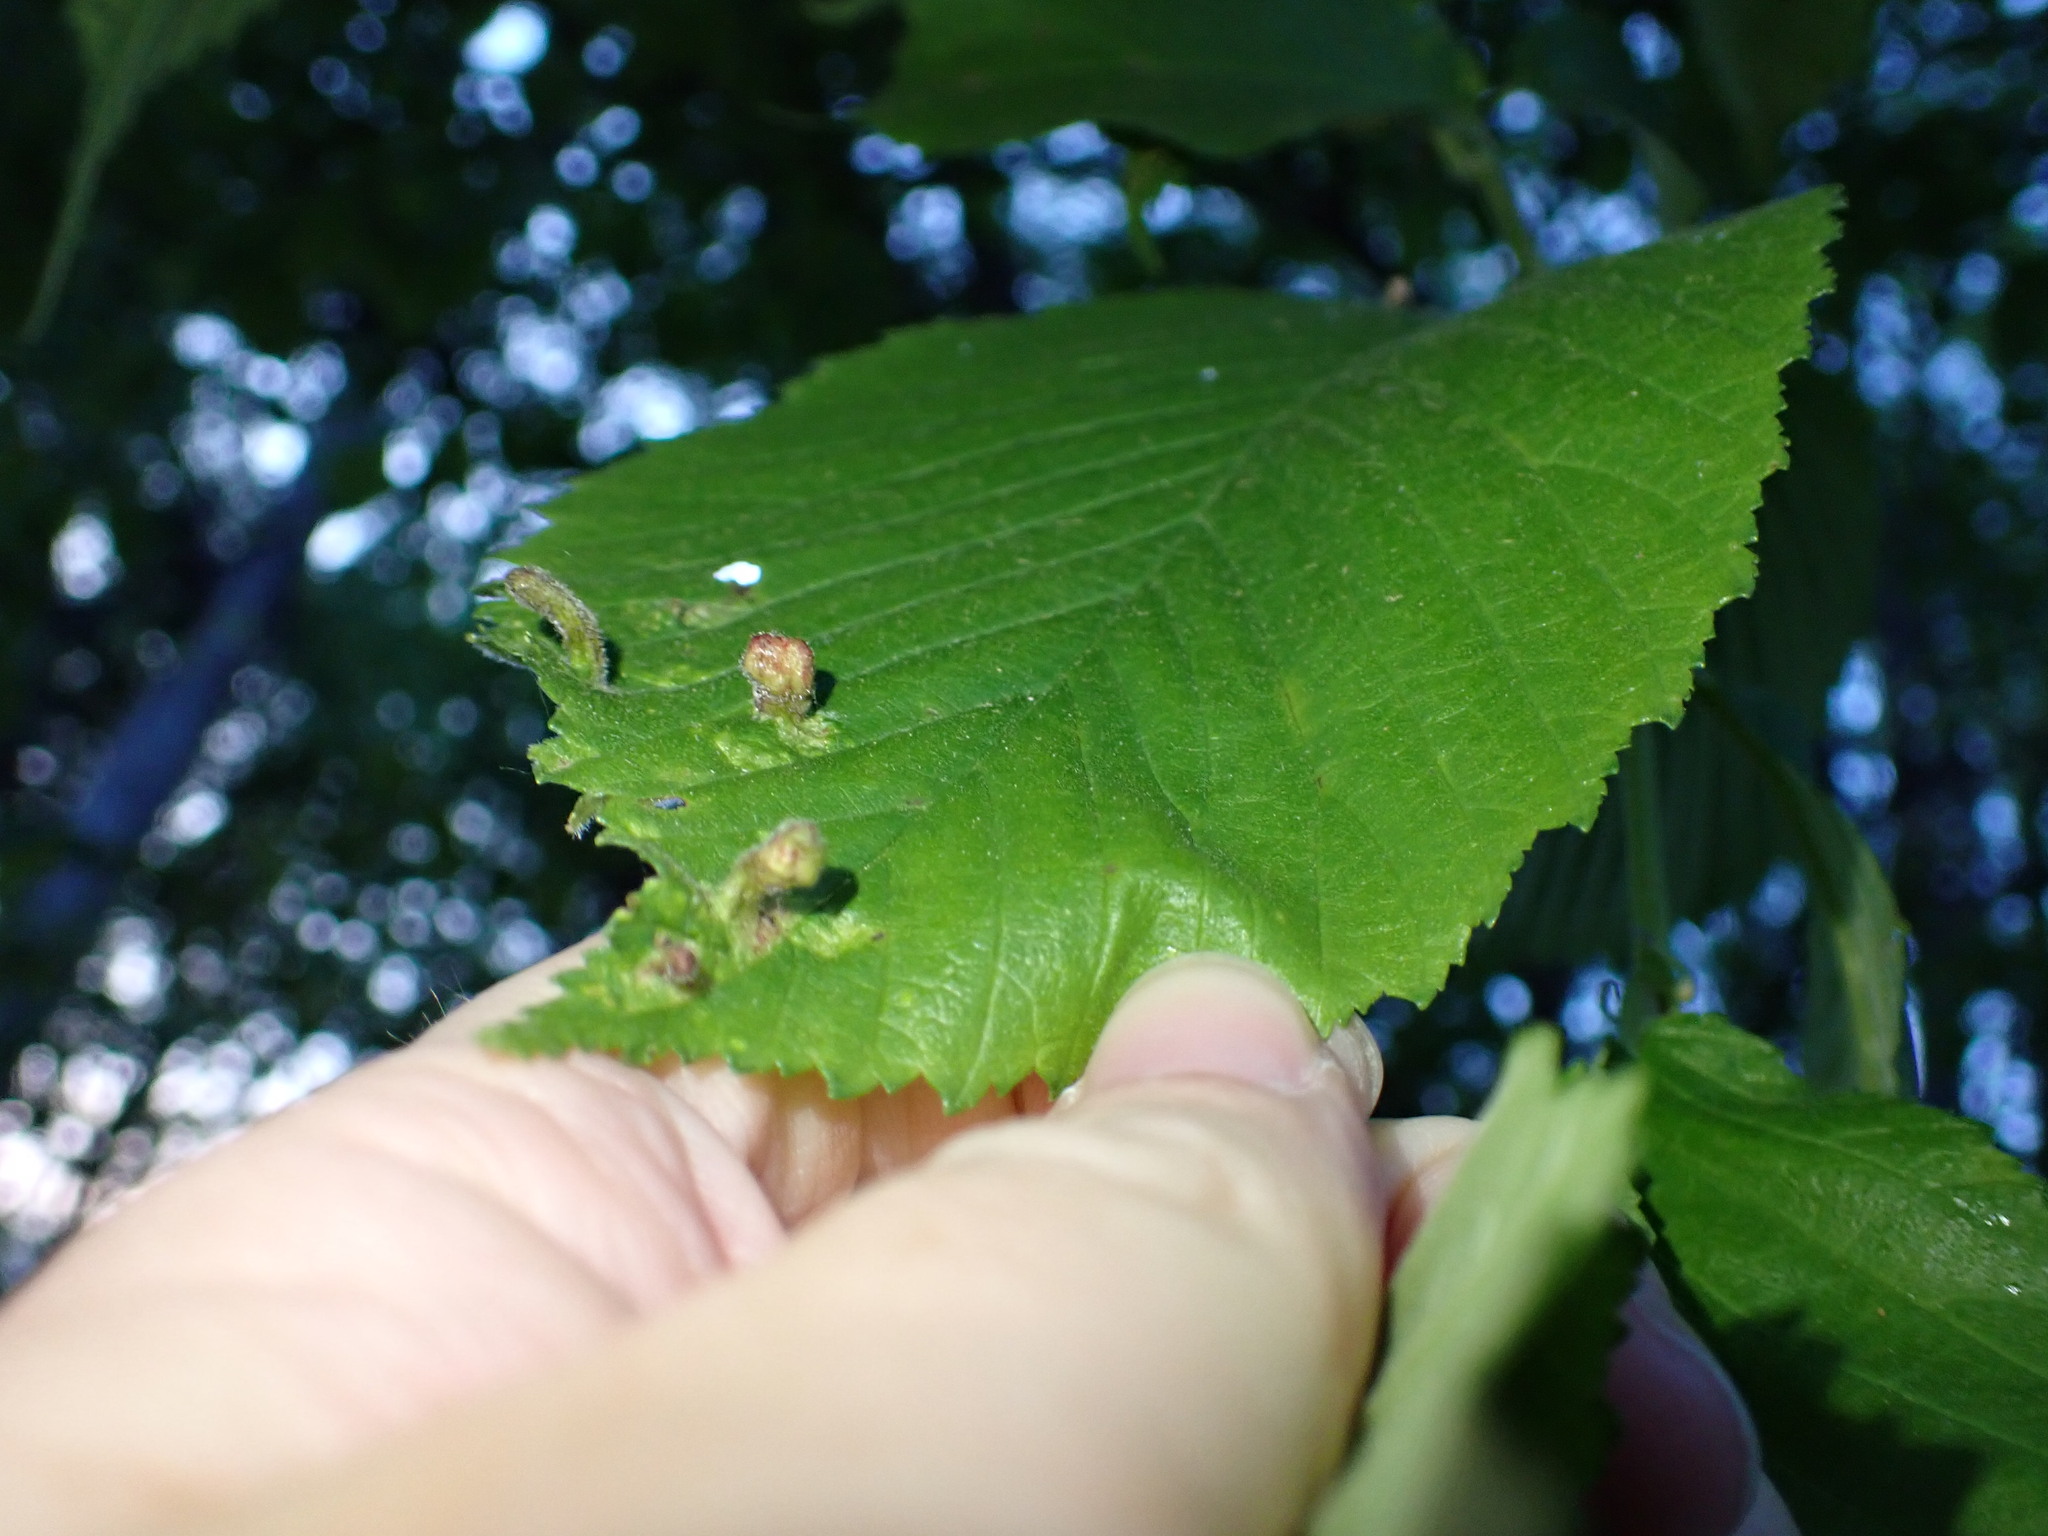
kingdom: Animalia
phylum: Arthropoda
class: Insecta
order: Hemiptera
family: Aphididae
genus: Tetraneura
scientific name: Tetraneura nigriabdominalis
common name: Aphid
